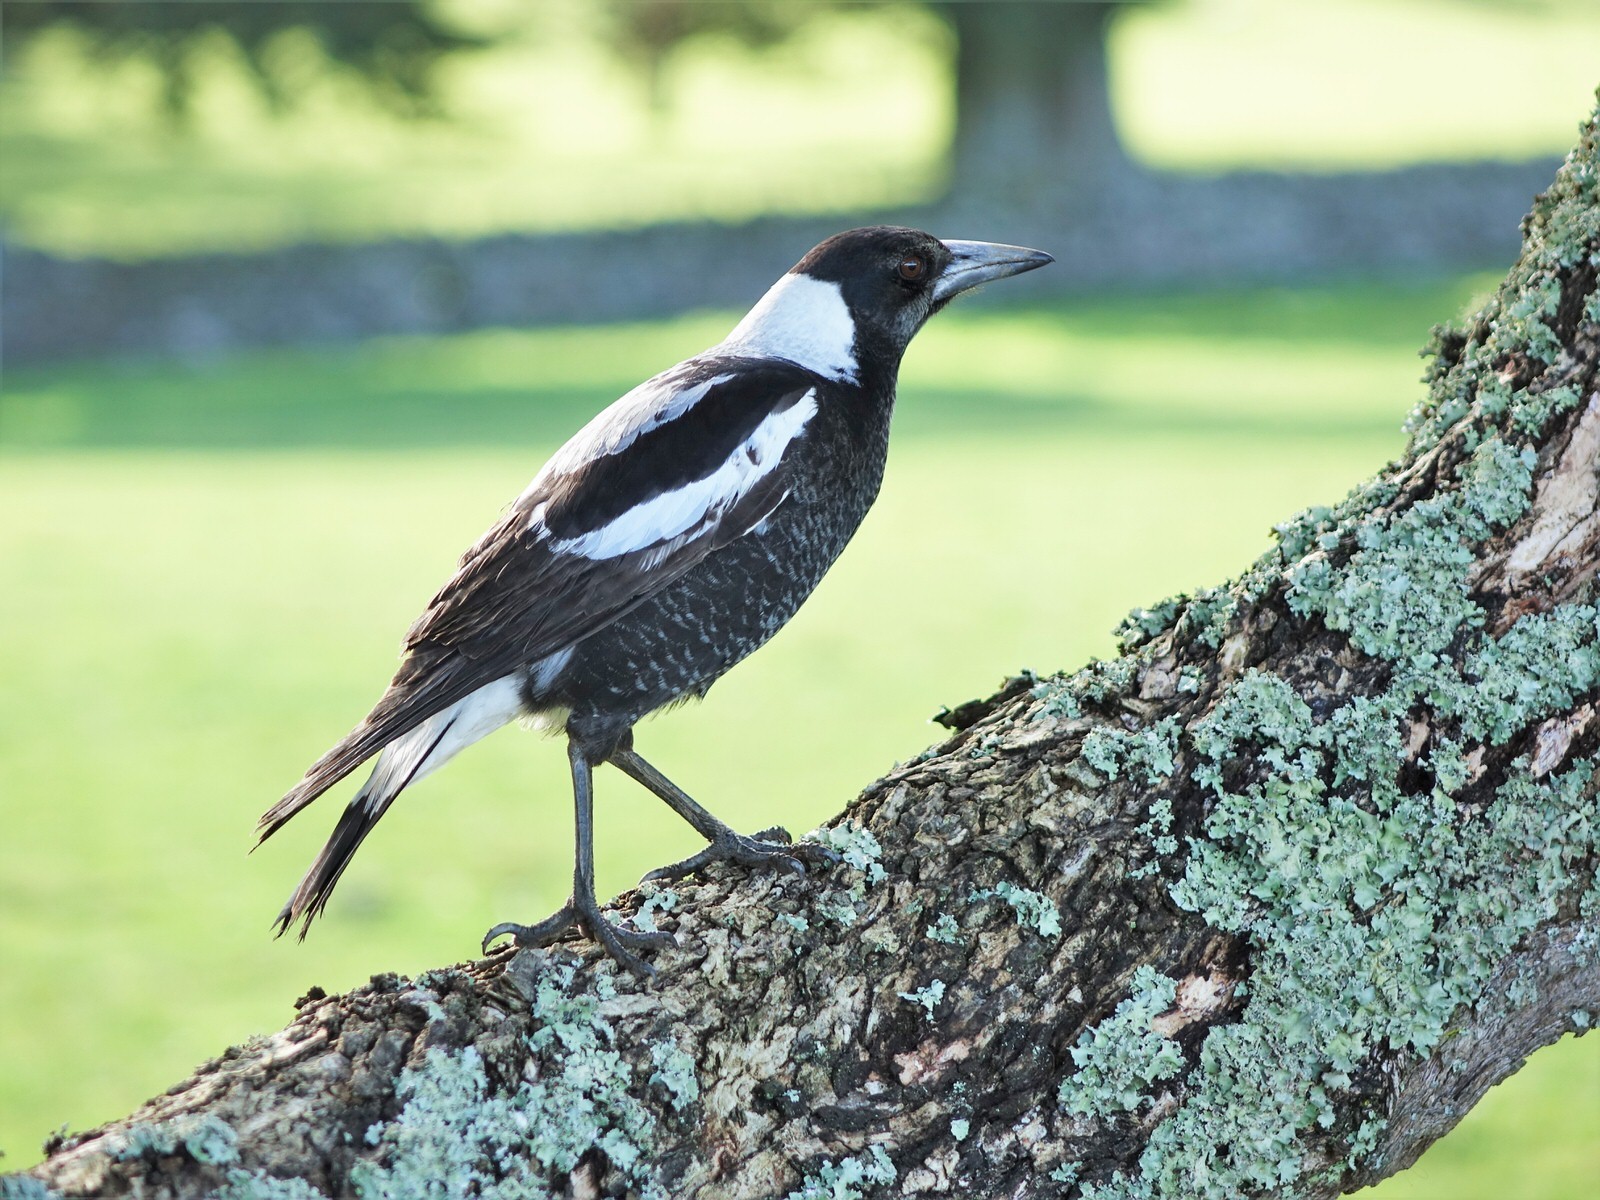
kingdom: Animalia
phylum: Chordata
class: Aves
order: Passeriformes
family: Cracticidae
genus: Gymnorhina
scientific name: Gymnorhina tibicen
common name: Australian magpie
